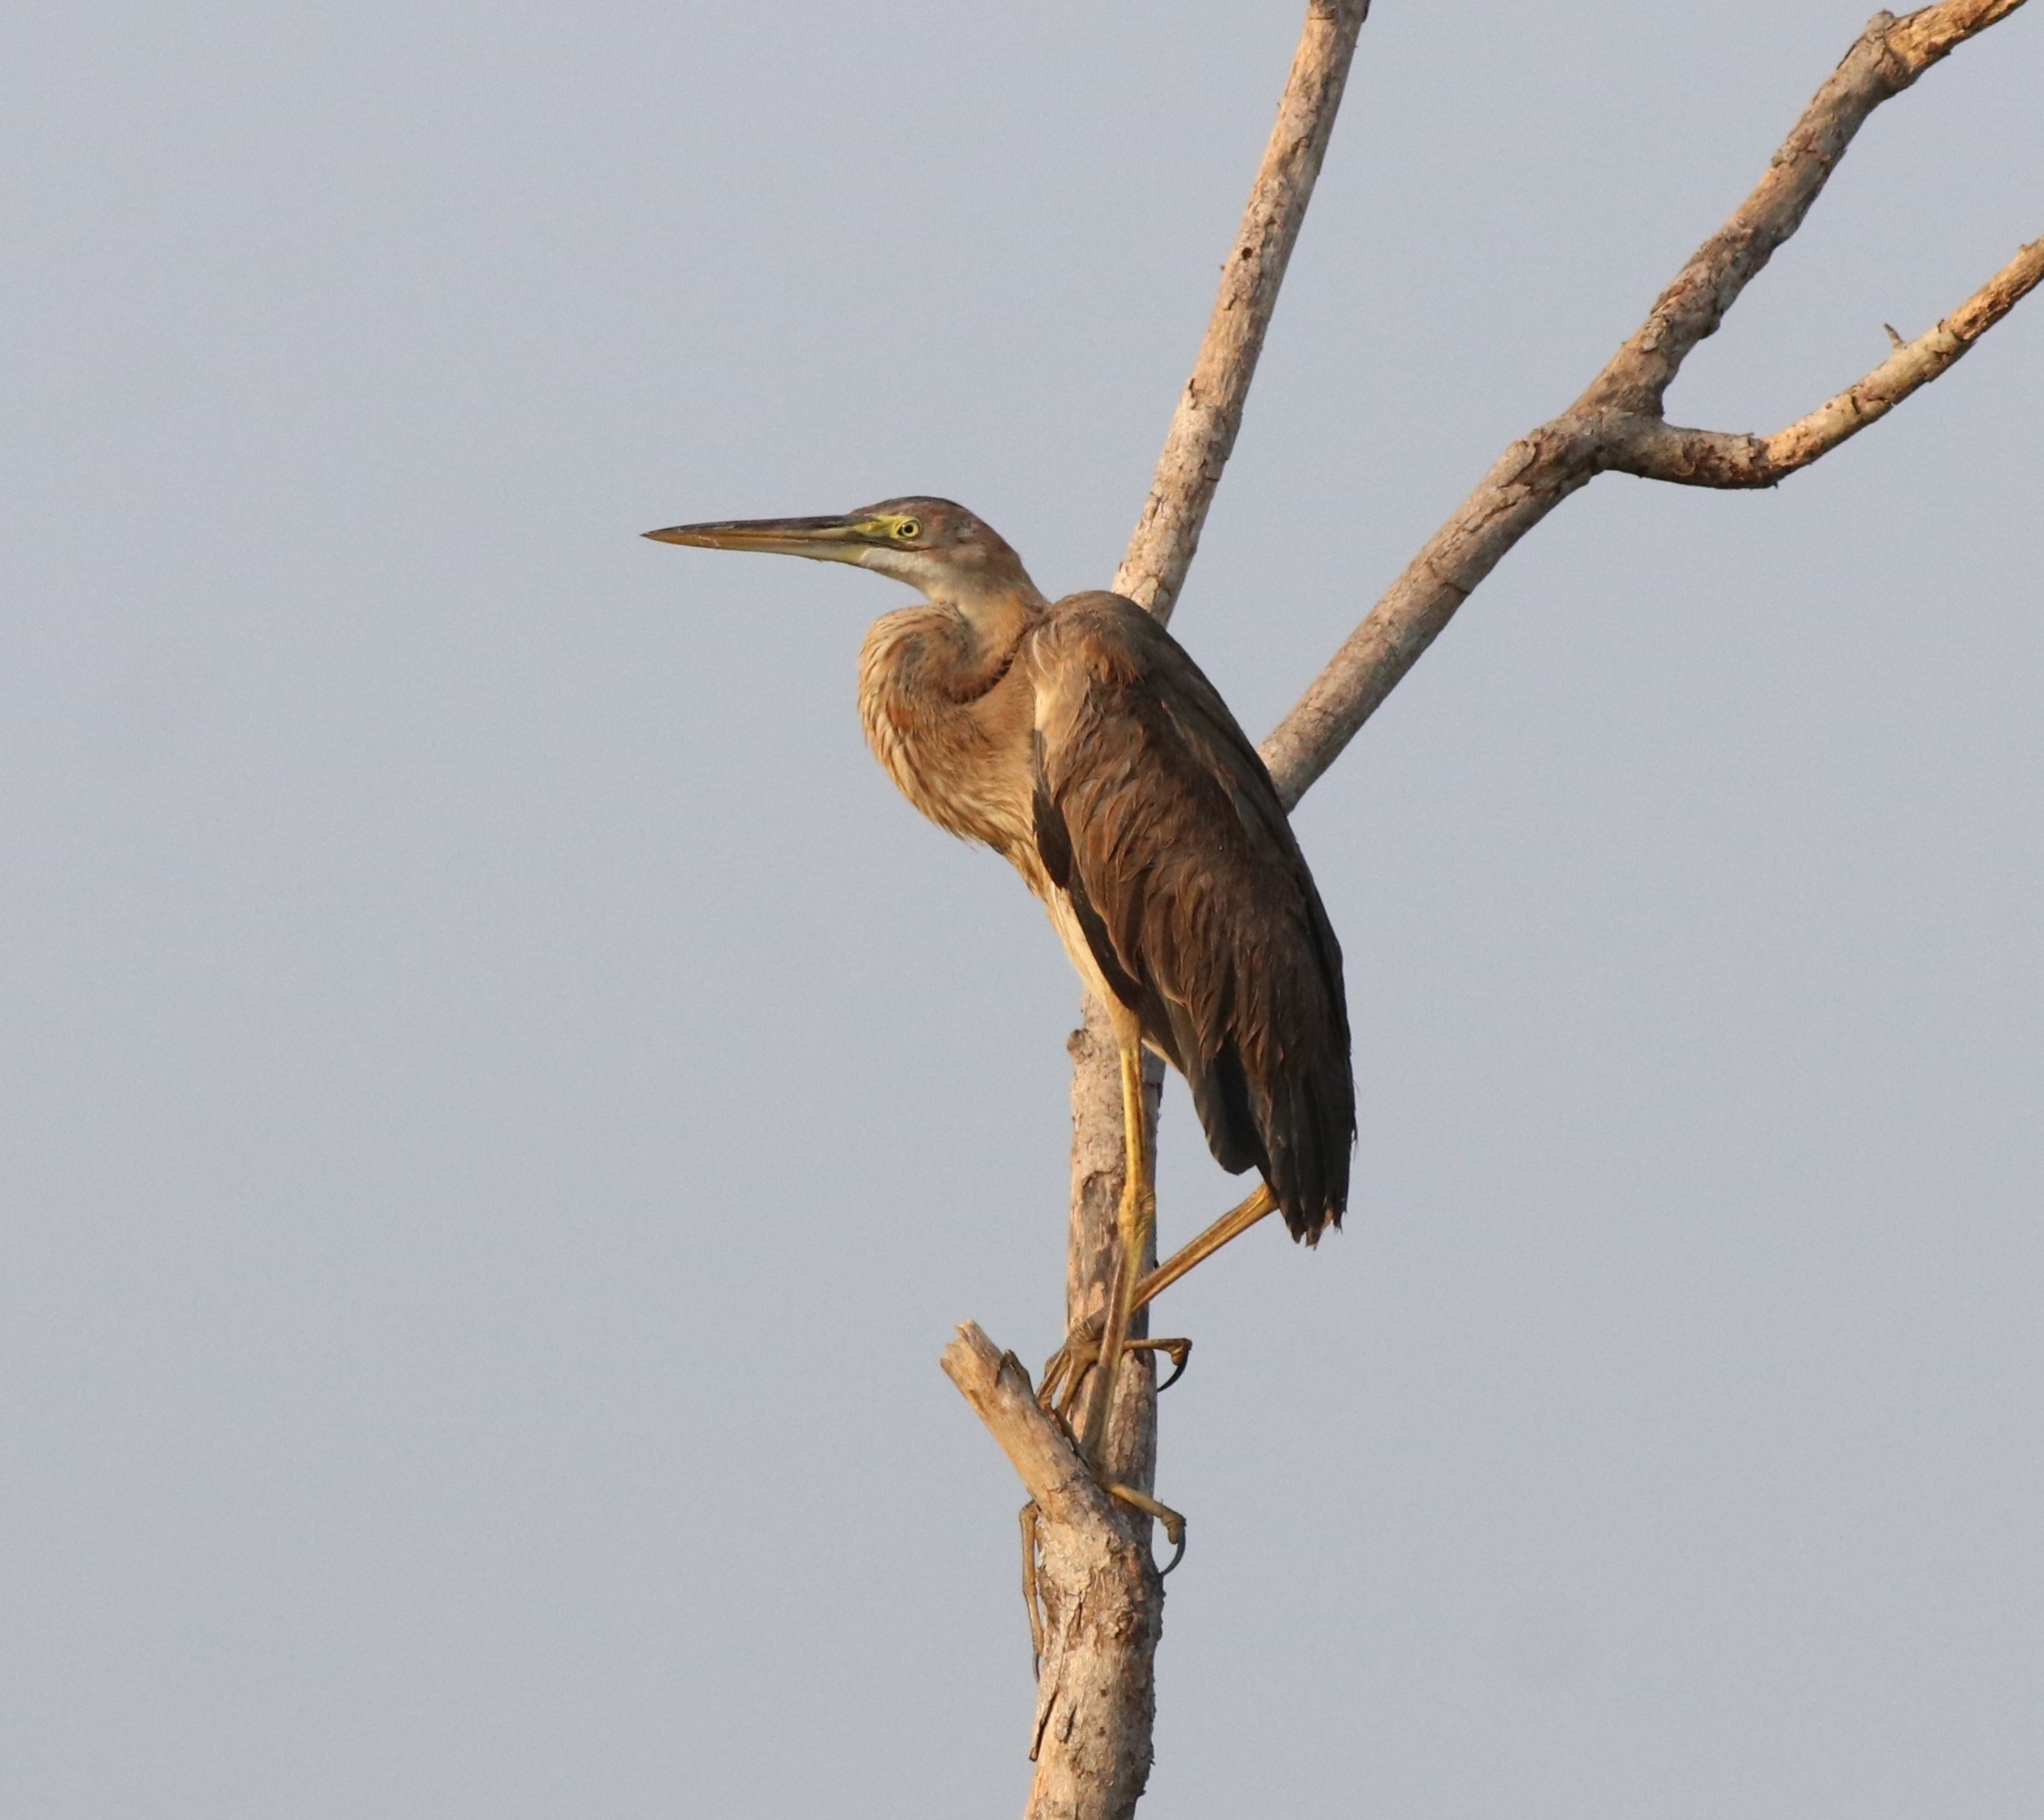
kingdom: Animalia
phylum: Chordata
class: Aves
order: Pelecaniformes
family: Ardeidae
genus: Ardea
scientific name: Ardea purpurea
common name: Purple heron
